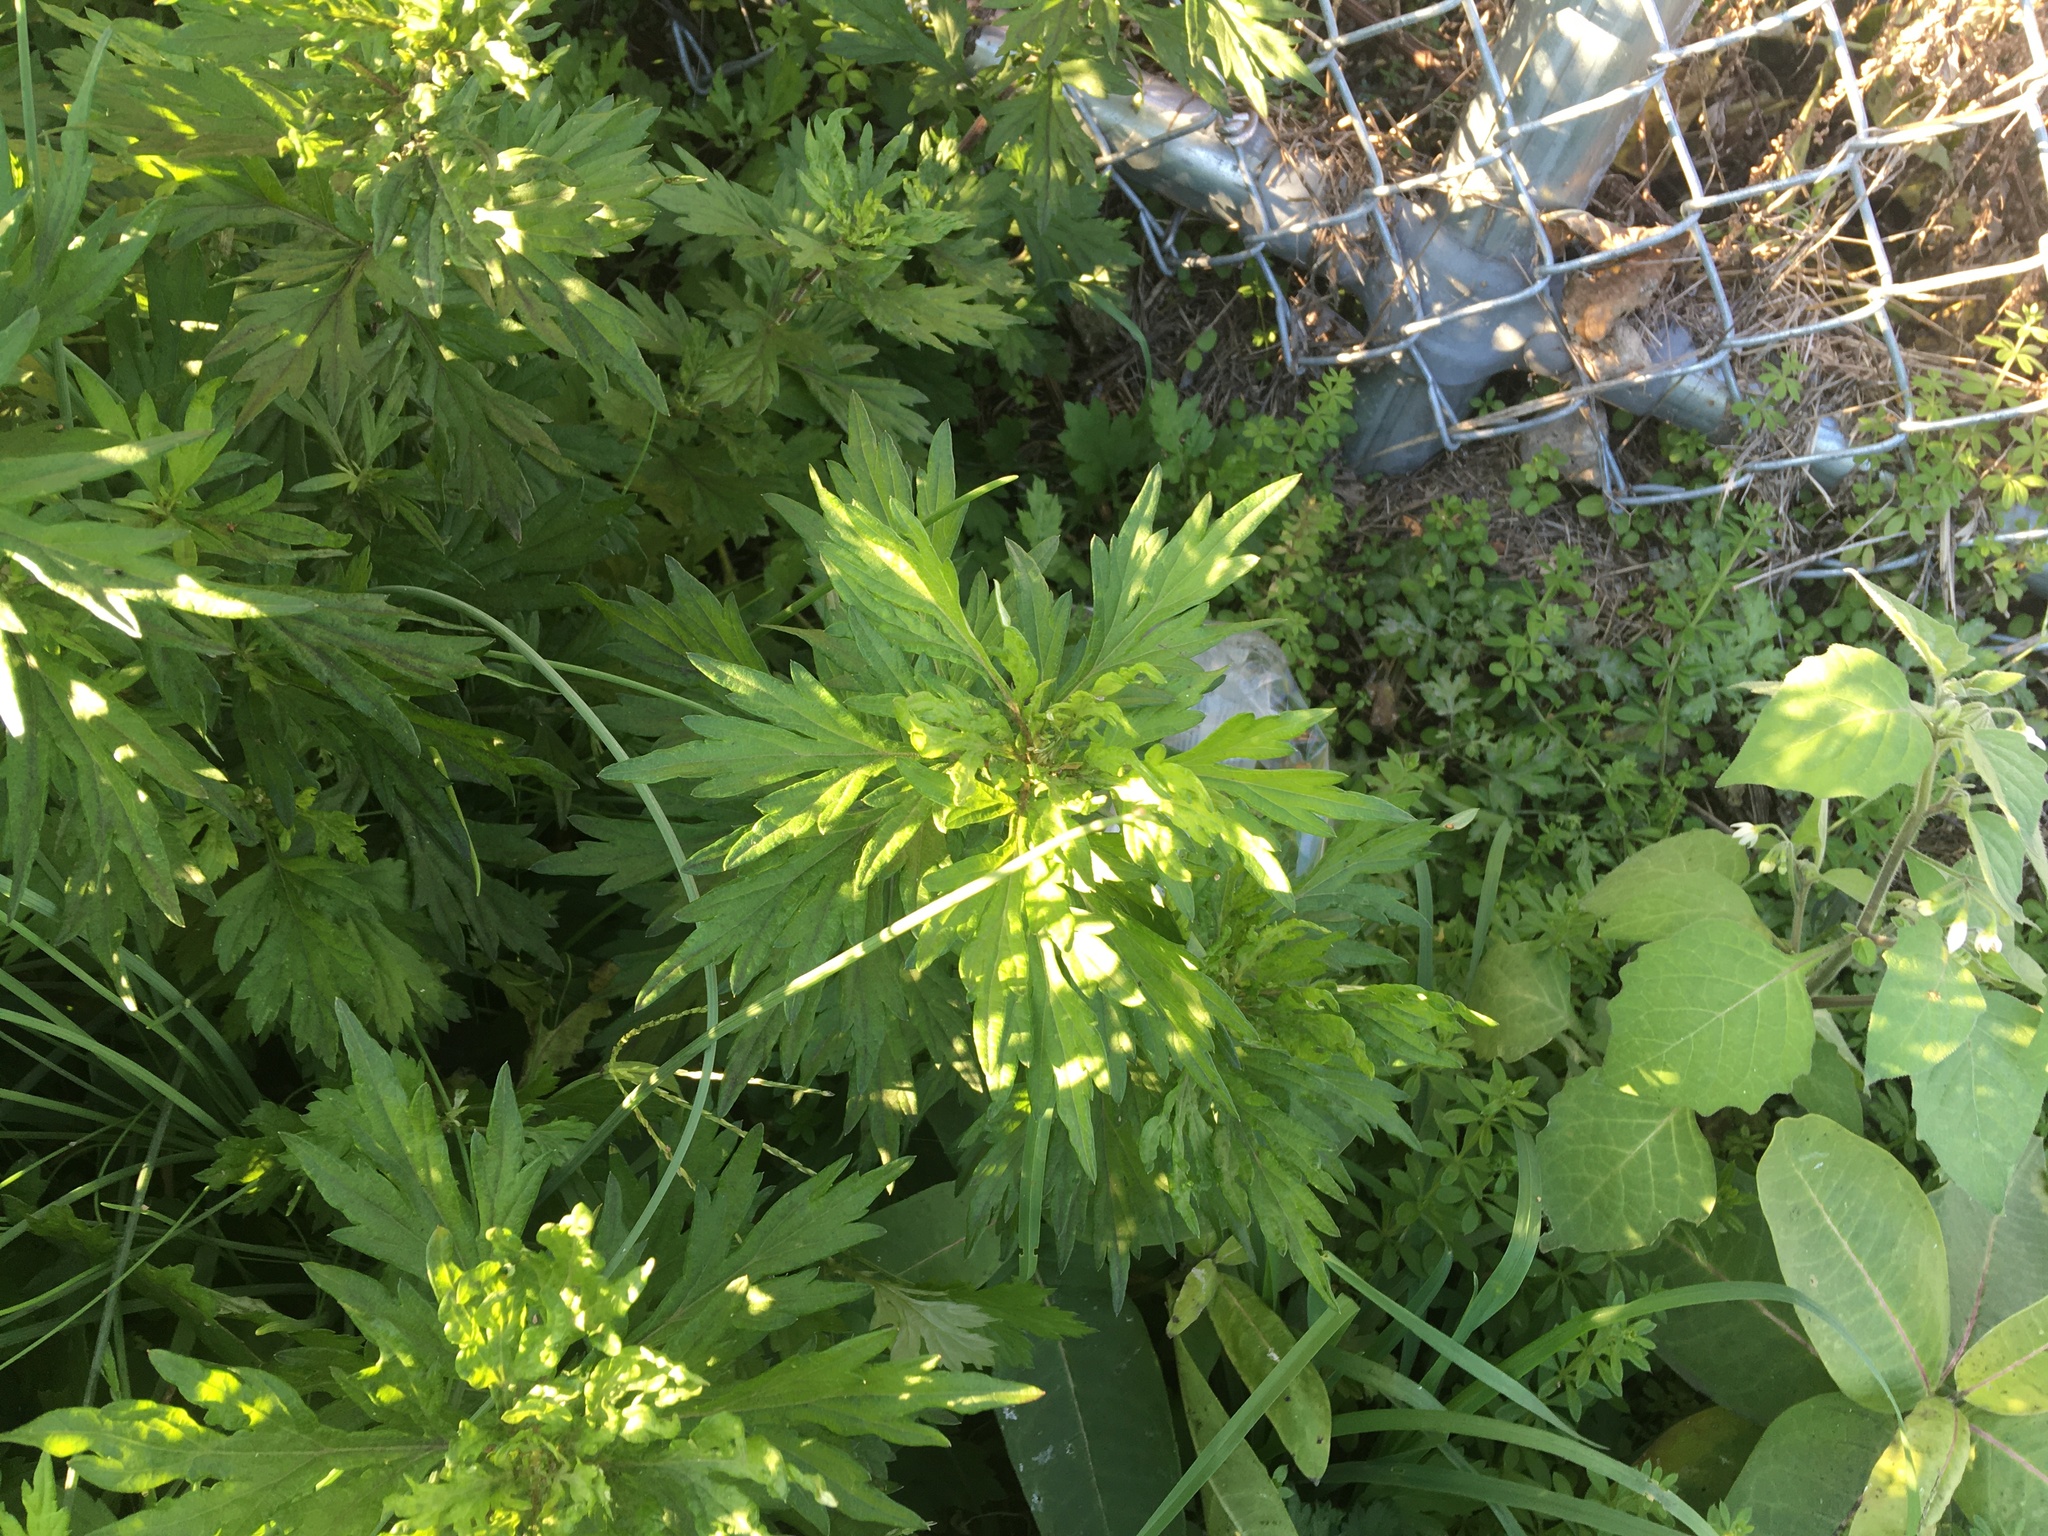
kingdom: Plantae
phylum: Tracheophyta
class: Magnoliopsida
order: Asterales
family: Asteraceae
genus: Artemisia
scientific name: Artemisia vulgaris
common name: Mugwort
